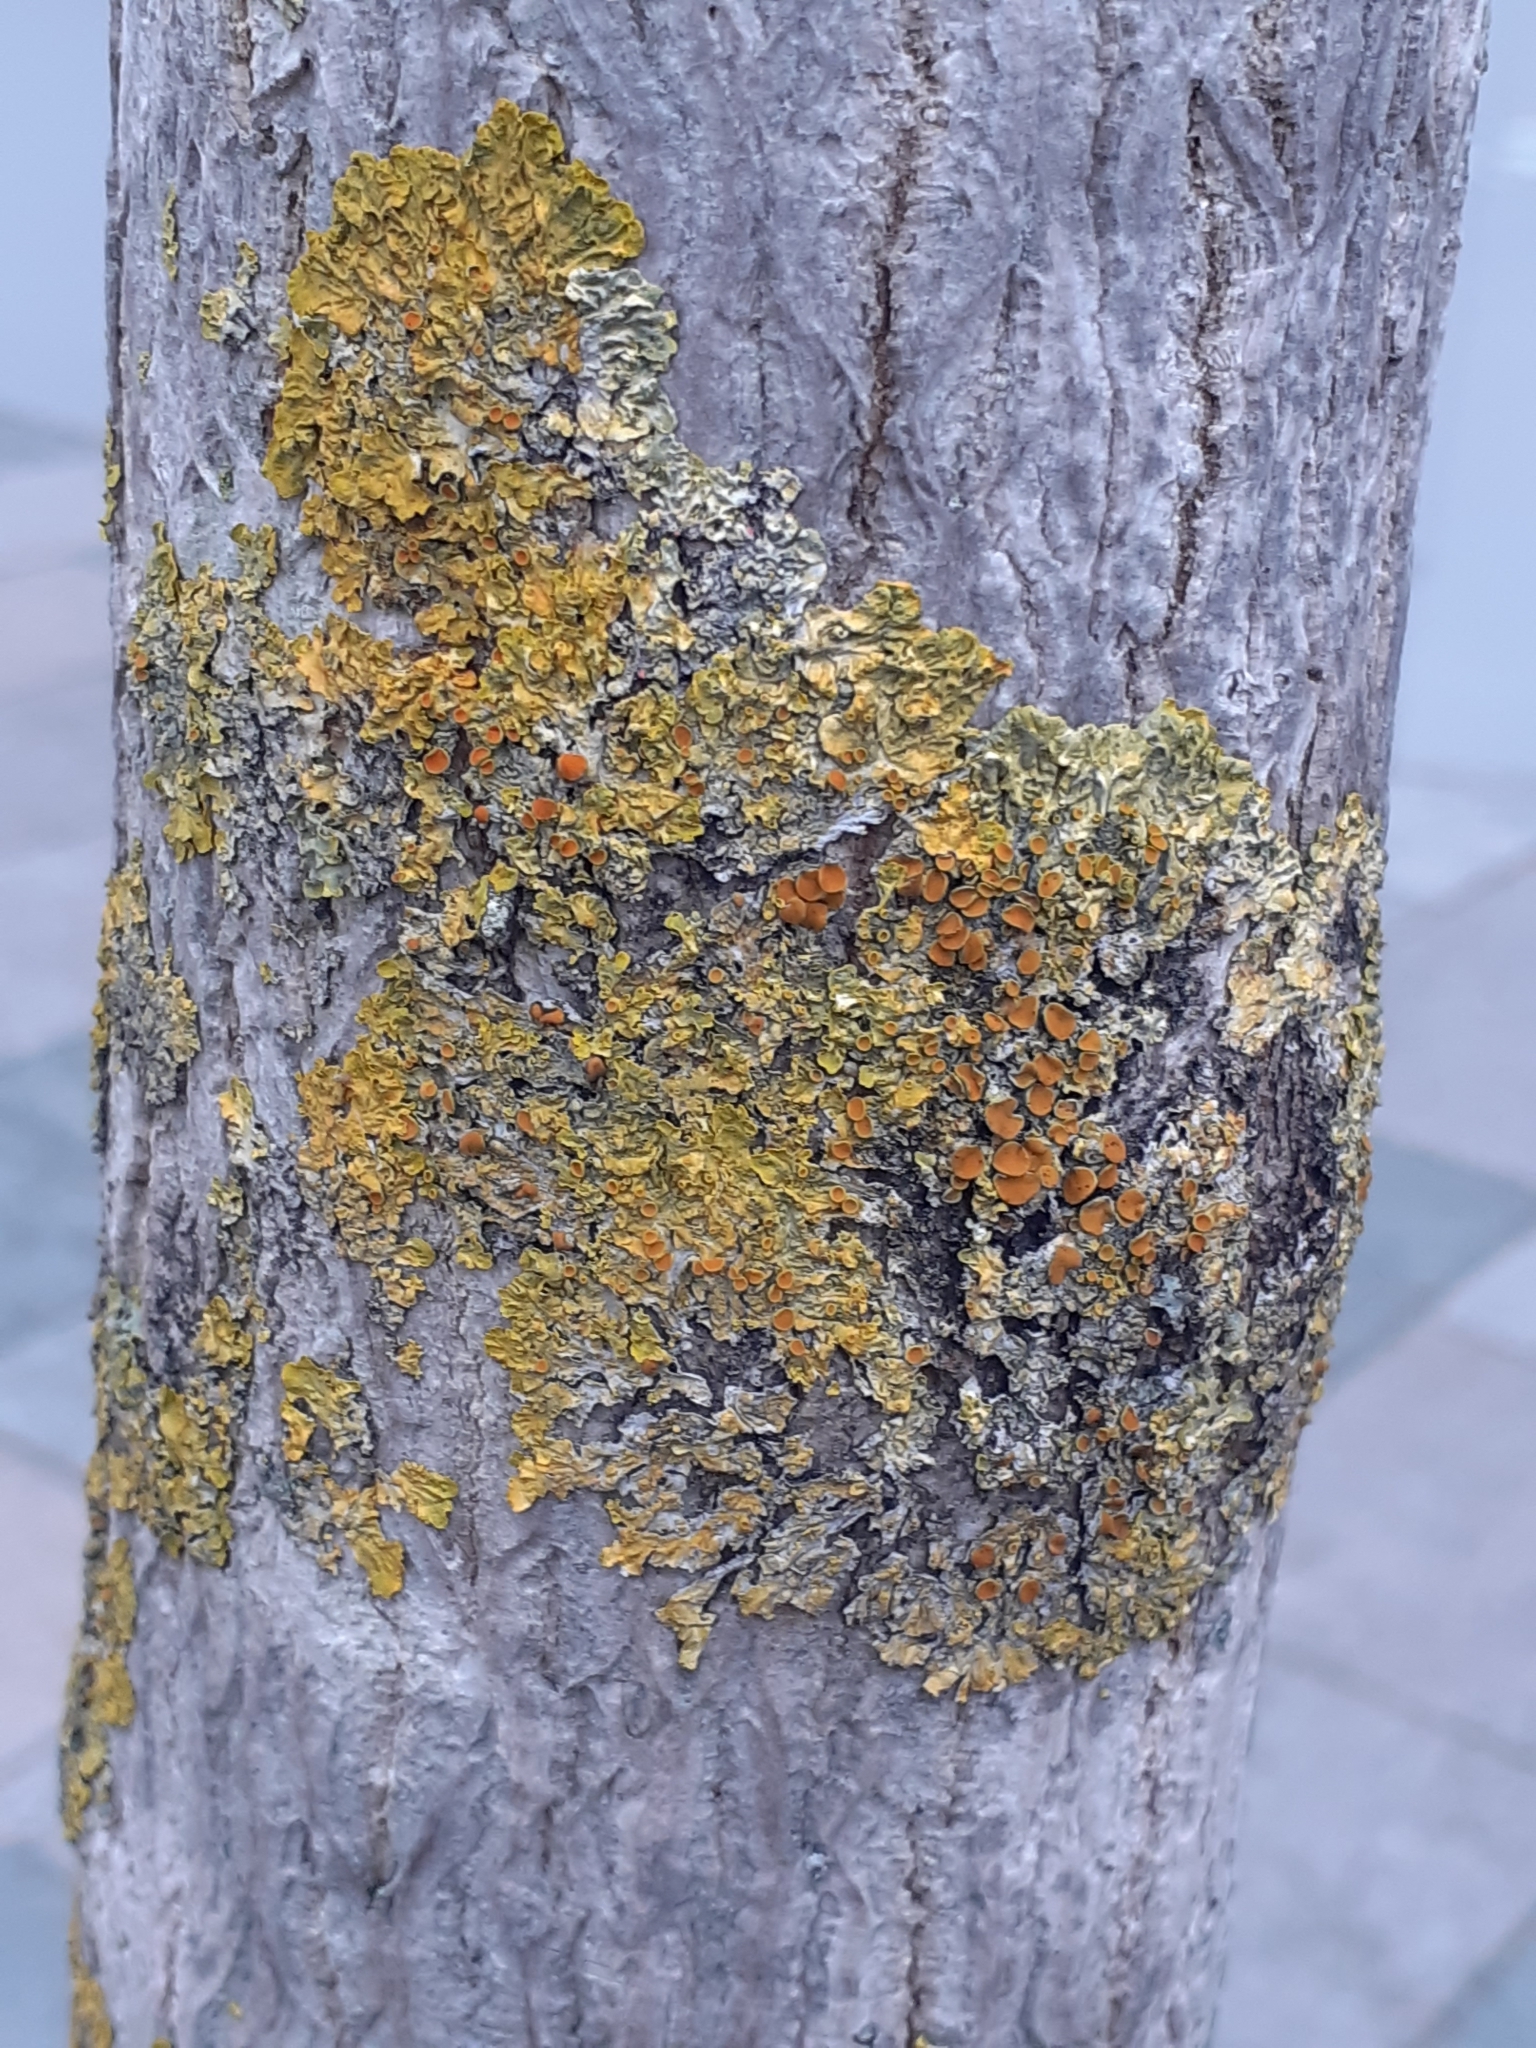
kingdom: Fungi
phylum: Ascomycota
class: Lecanoromycetes
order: Teloschistales
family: Teloschistaceae
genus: Xanthoria
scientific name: Xanthoria parietina
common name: Common orange lichen
